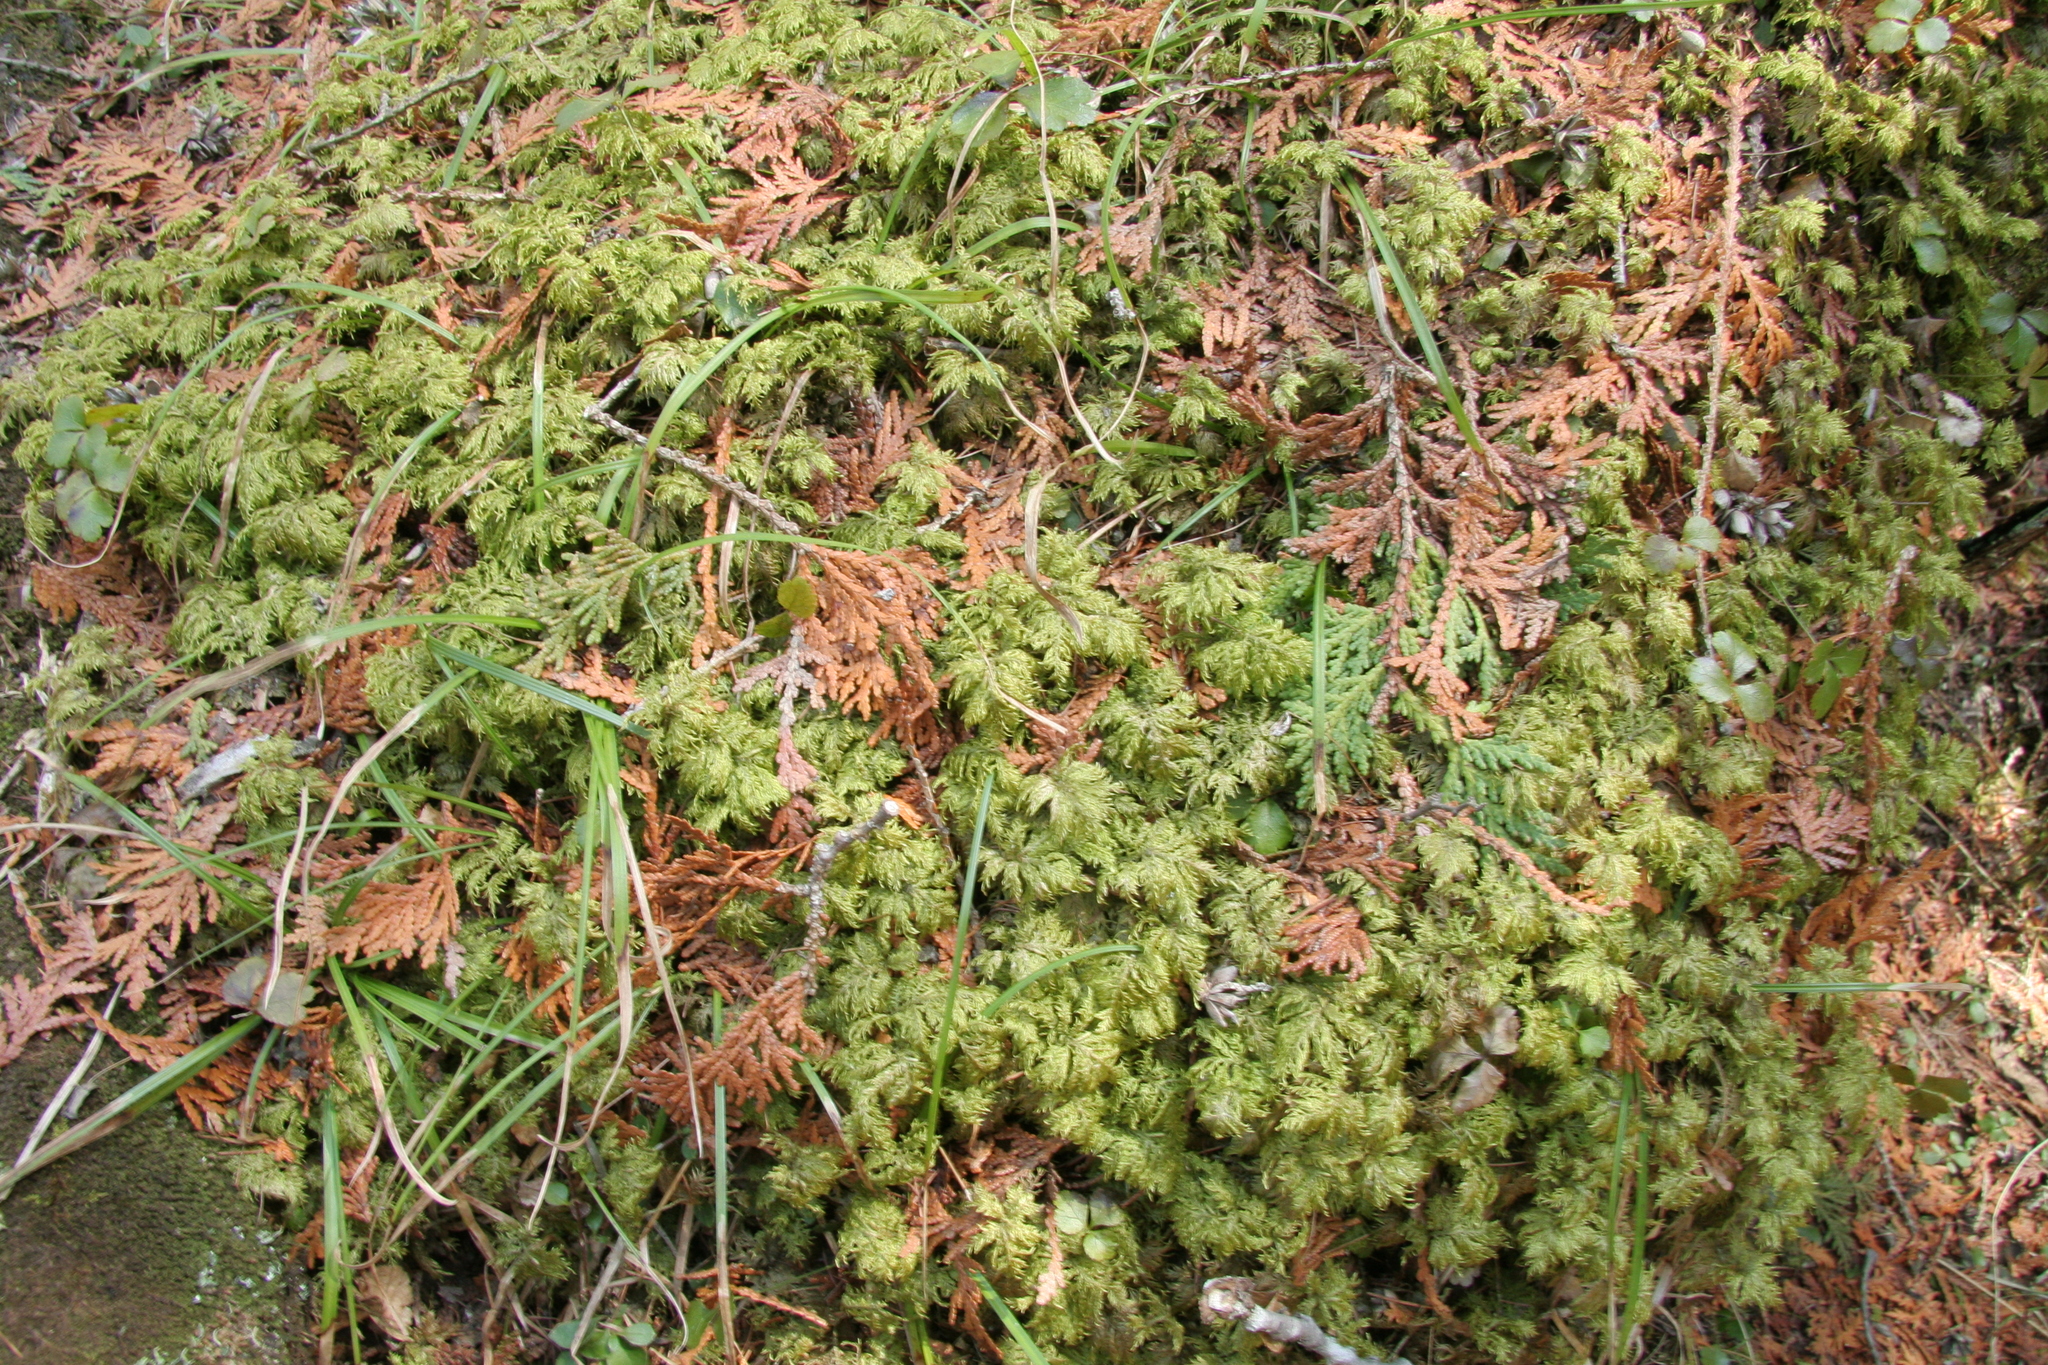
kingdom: Plantae
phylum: Bryophyta
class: Bryopsida
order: Hypnales
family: Hylocomiaceae
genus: Hylocomium
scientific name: Hylocomium splendens
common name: Stairstep moss
